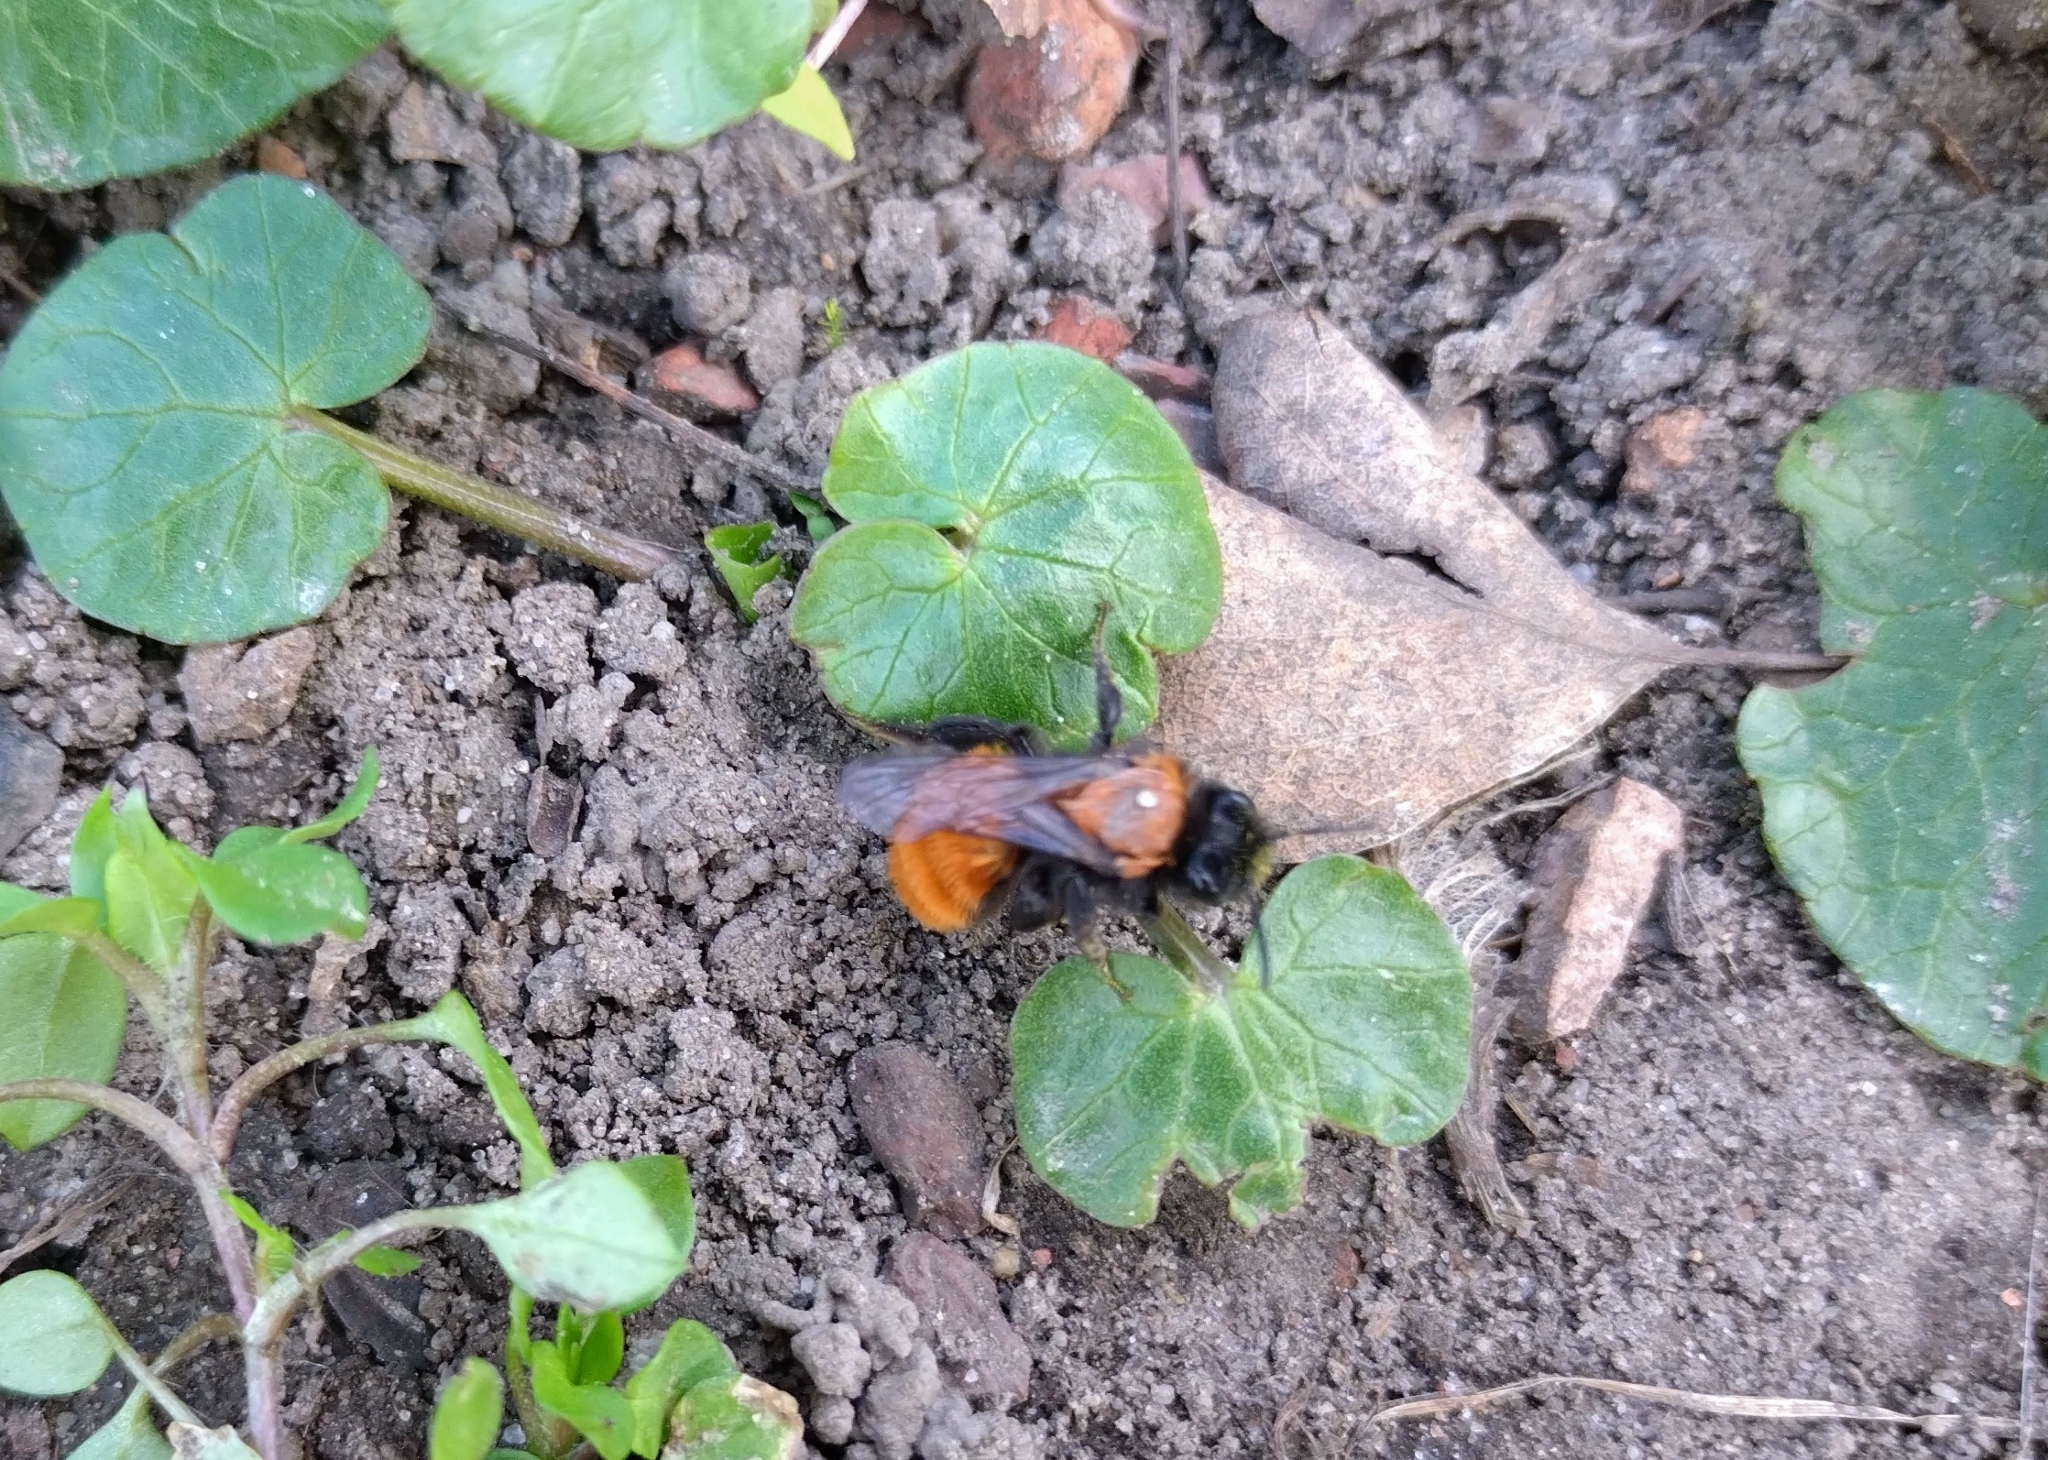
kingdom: Animalia
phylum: Arthropoda
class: Insecta
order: Hymenoptera
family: Andrenidae
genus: Andrena
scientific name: Andrena fulva
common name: Tawny mining bee
